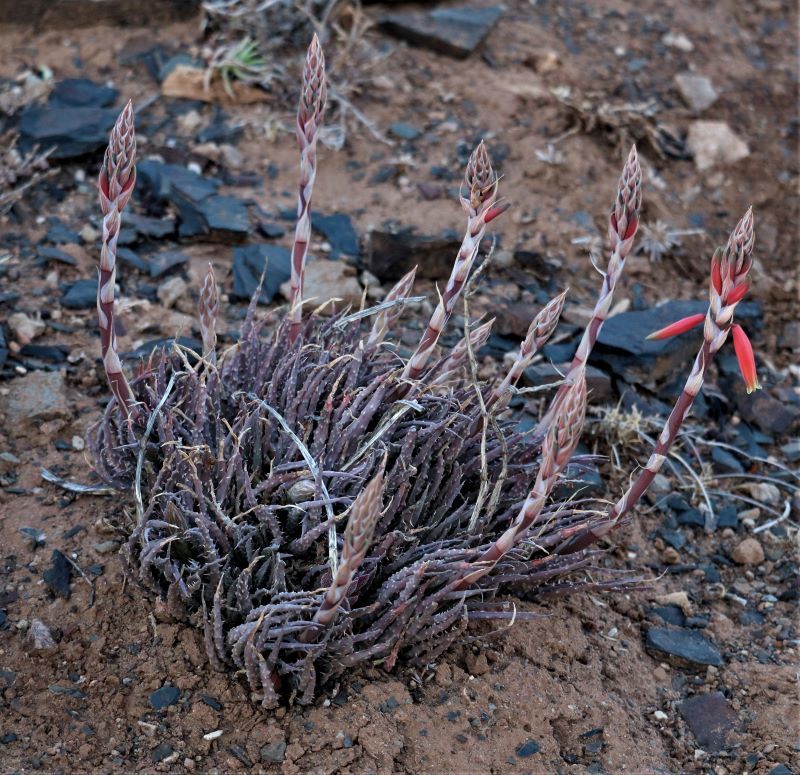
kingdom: Plantae
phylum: Tracheophyta
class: Liliopsida
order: Asparagales
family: Asphodelaceae
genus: Aloe
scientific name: Aloe humilis
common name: Dwarf hedgehog aloe
